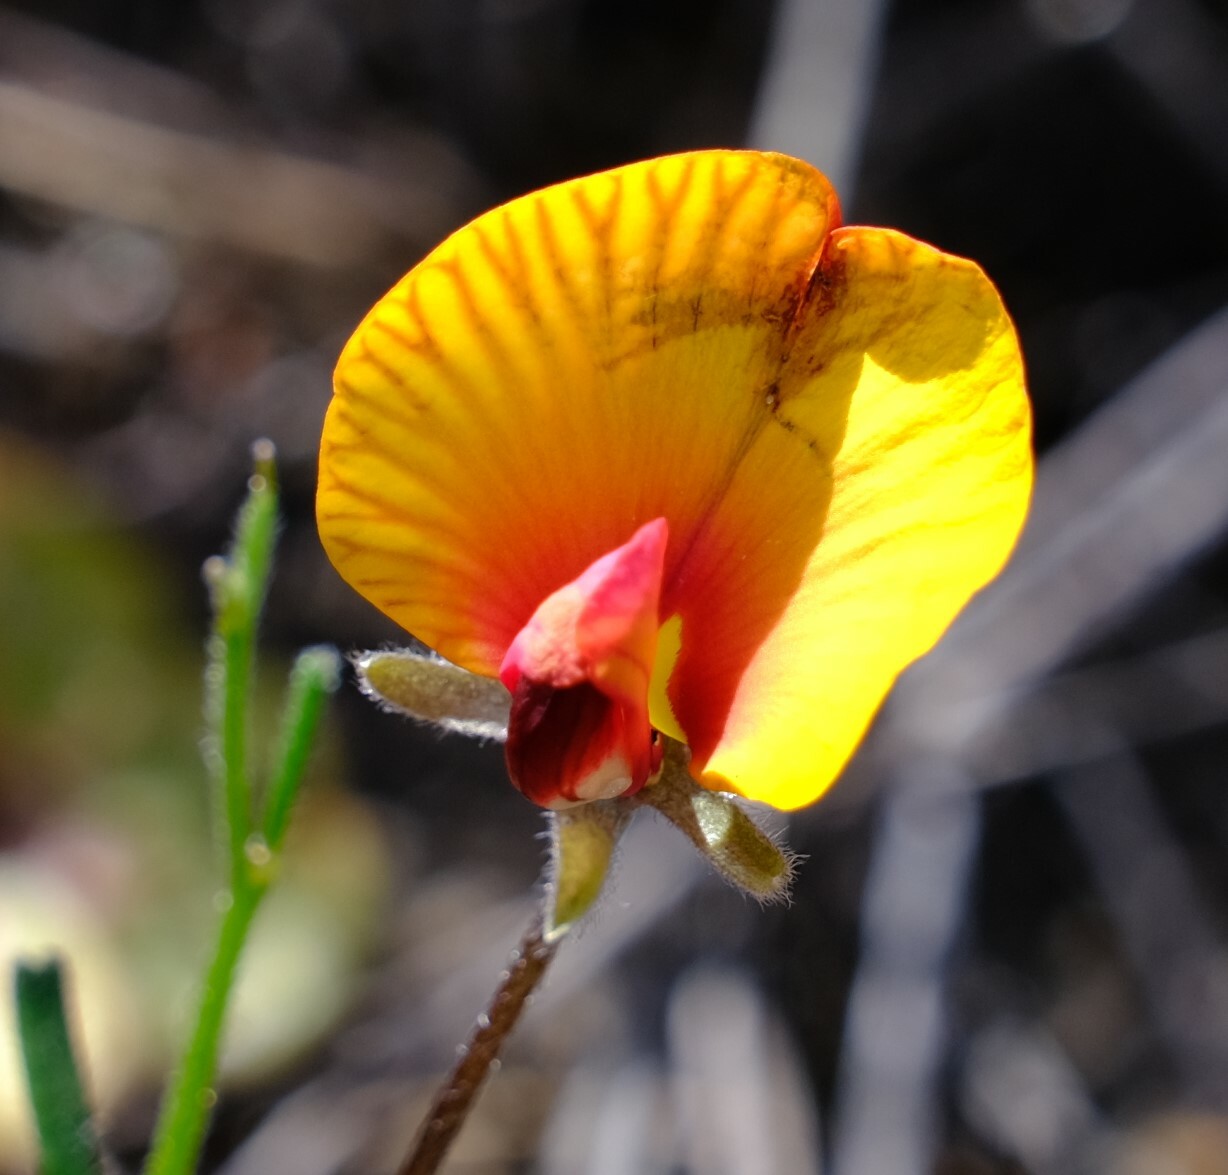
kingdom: Plantae
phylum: Tracheophyta
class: Magnoliopsida
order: Fabales
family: Fabaceae
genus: Isotropis
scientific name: Isotropis cuneifolia
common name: Granny bonnets
